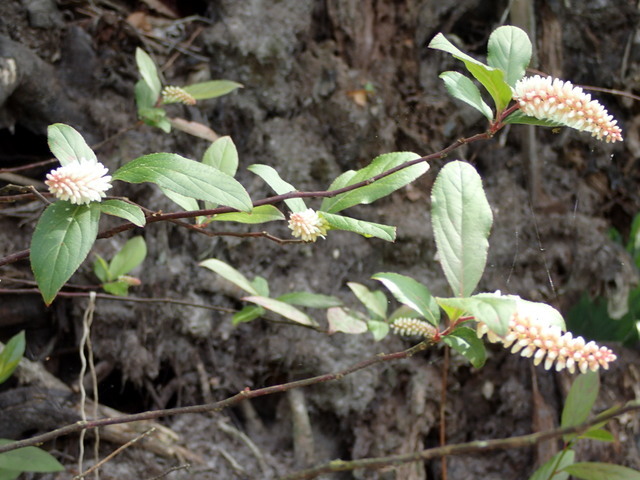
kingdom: Plantae
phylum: Tracheophyta
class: Magnoliopsida
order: Saxifragales
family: Iteaceae
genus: Itea
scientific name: Itea virginica
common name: Sweetspire
